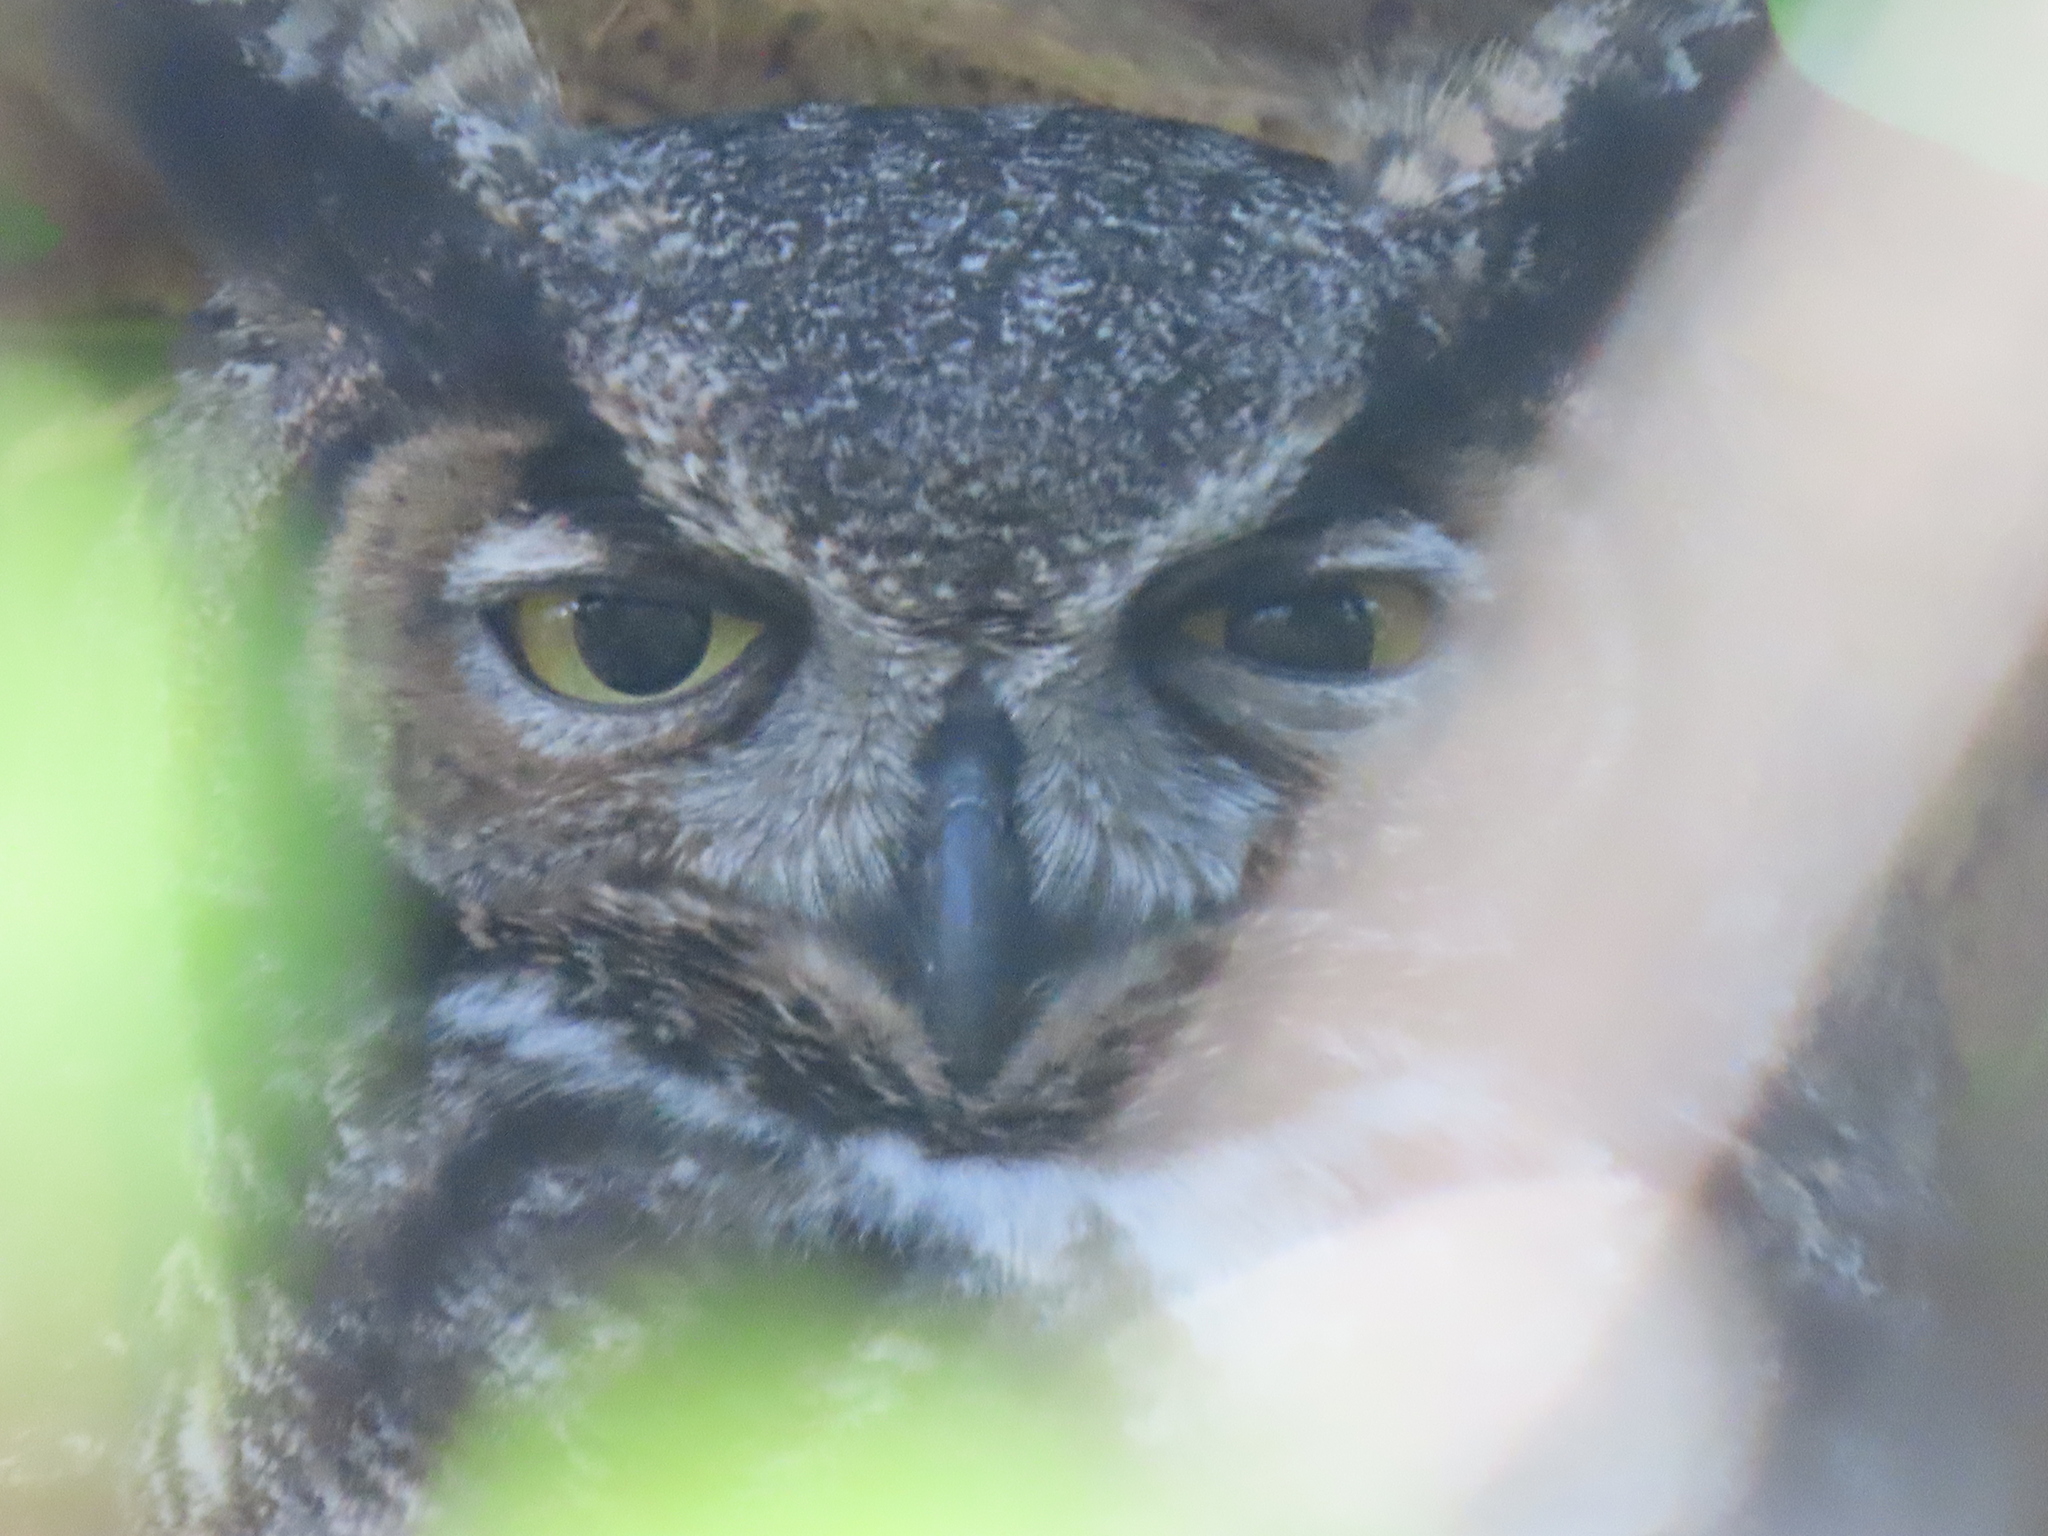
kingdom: Animalia
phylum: Chordata
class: Aves
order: Strigiformes
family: Strigidae
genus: Bubo
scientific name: Bubo virginianus
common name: Great horned owl
